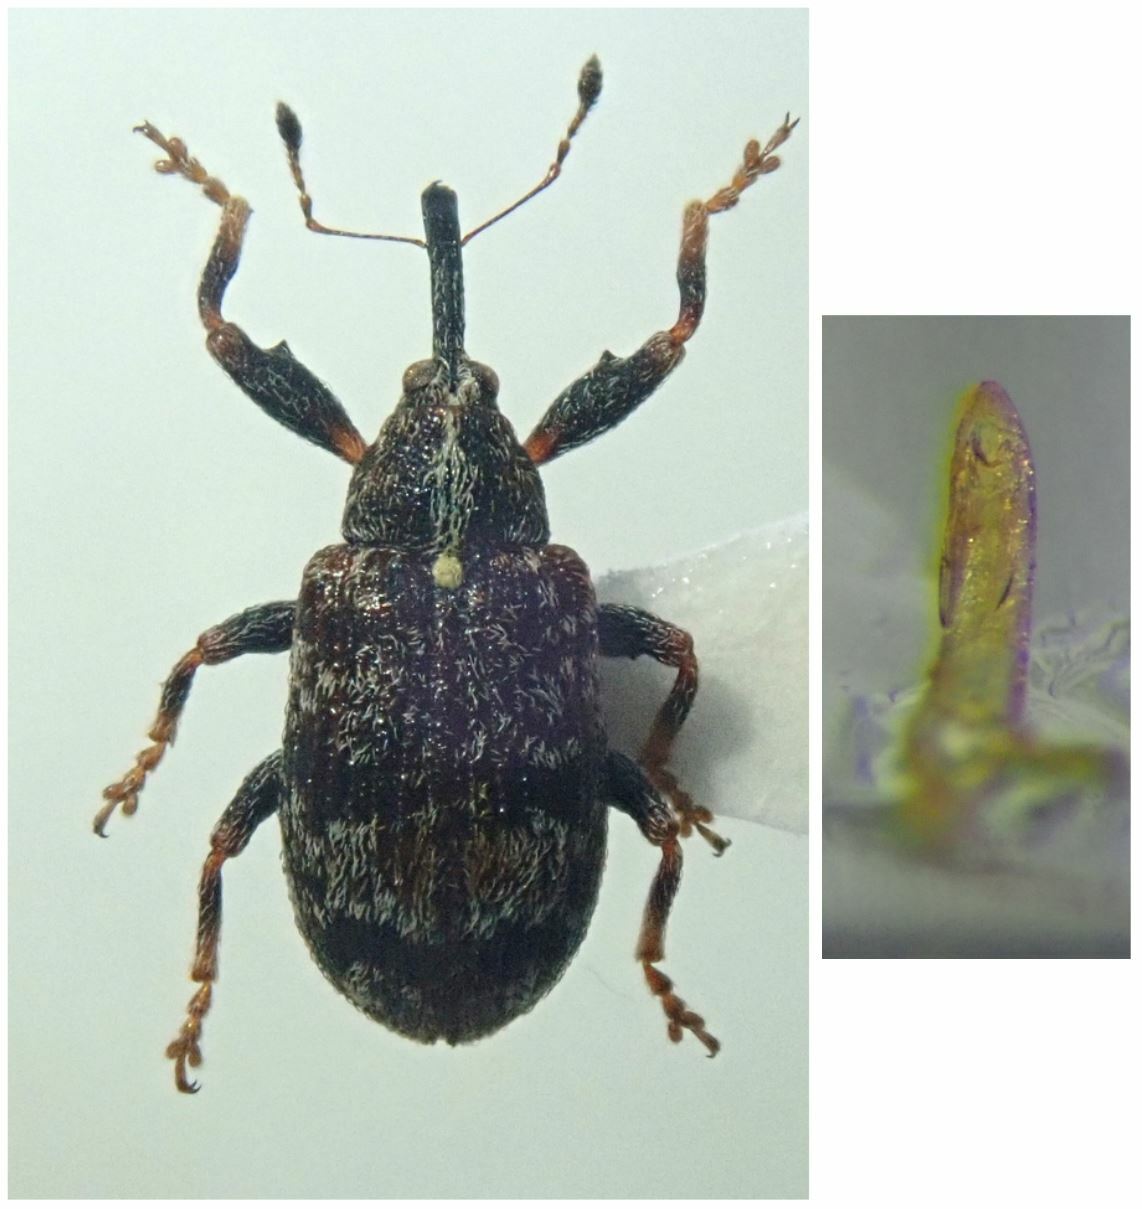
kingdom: Animalia
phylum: Arthropoda
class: Insecta
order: Coleoptera
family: Curculionidae
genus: Anthonomus
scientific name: Anthonomus multifasciatus
